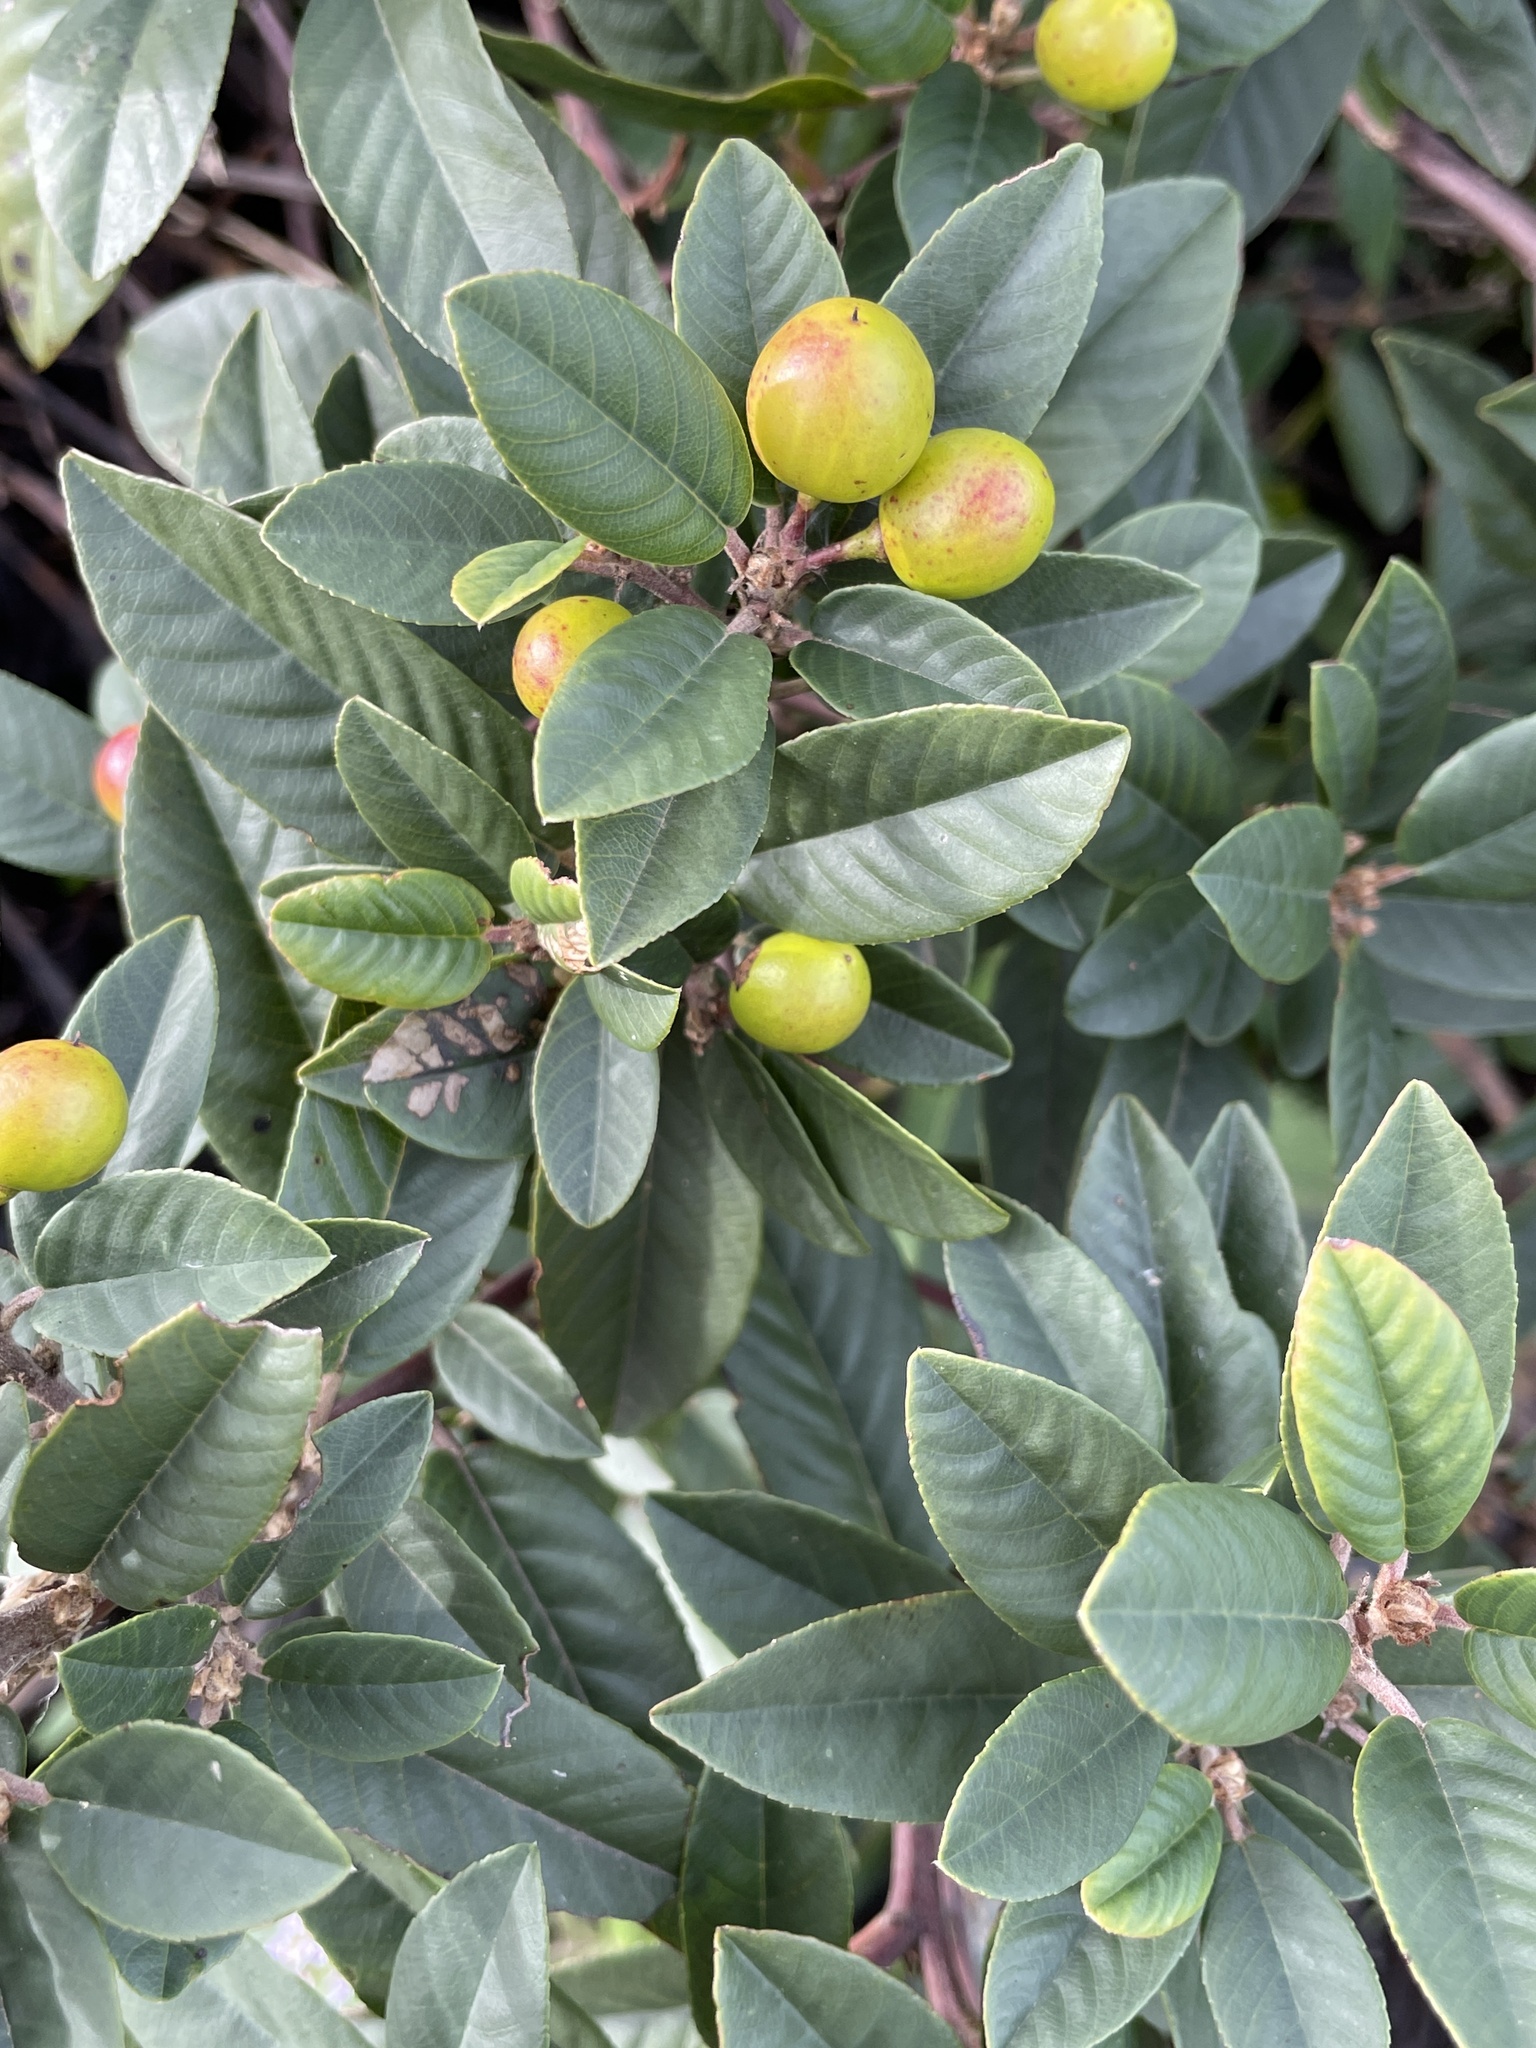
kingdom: Plantae
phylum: Tracheophyta
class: Magnoliopsida
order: Rosales
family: Rhamnaceae
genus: Frangula
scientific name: Frangula californica
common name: California buckthorn
